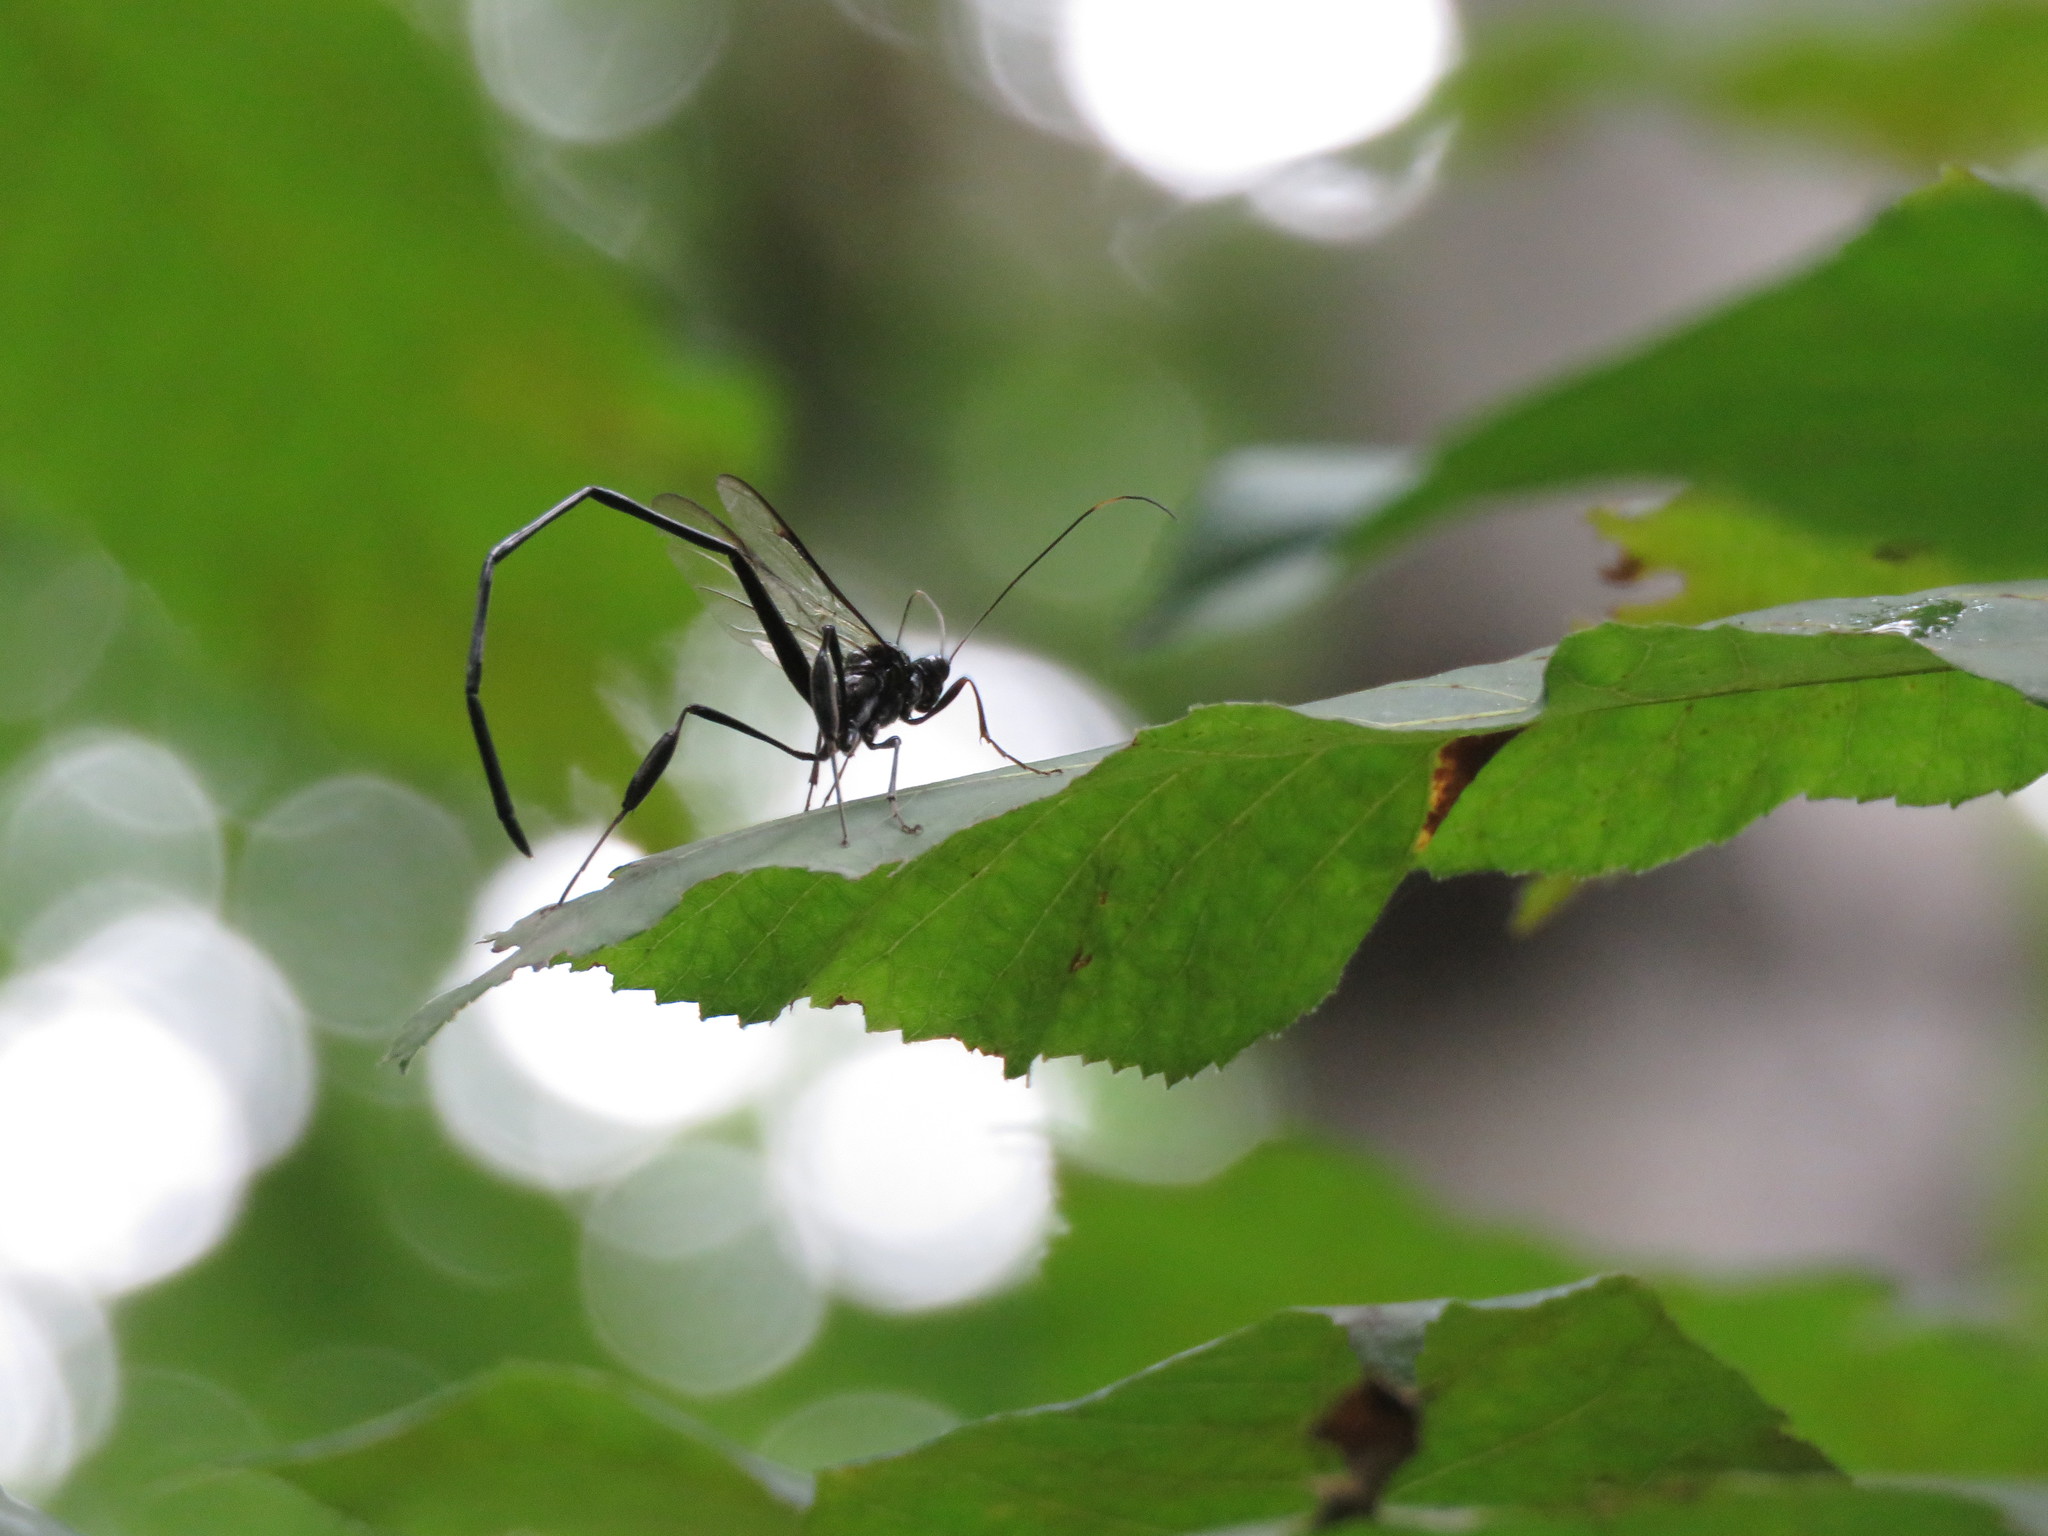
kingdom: Animalia
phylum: Arthropoda
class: Insecta
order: Hymenoptera
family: Pelecinidae
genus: Pelecinus
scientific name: Pelecinus polyturator
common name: American pelecinid wasp
